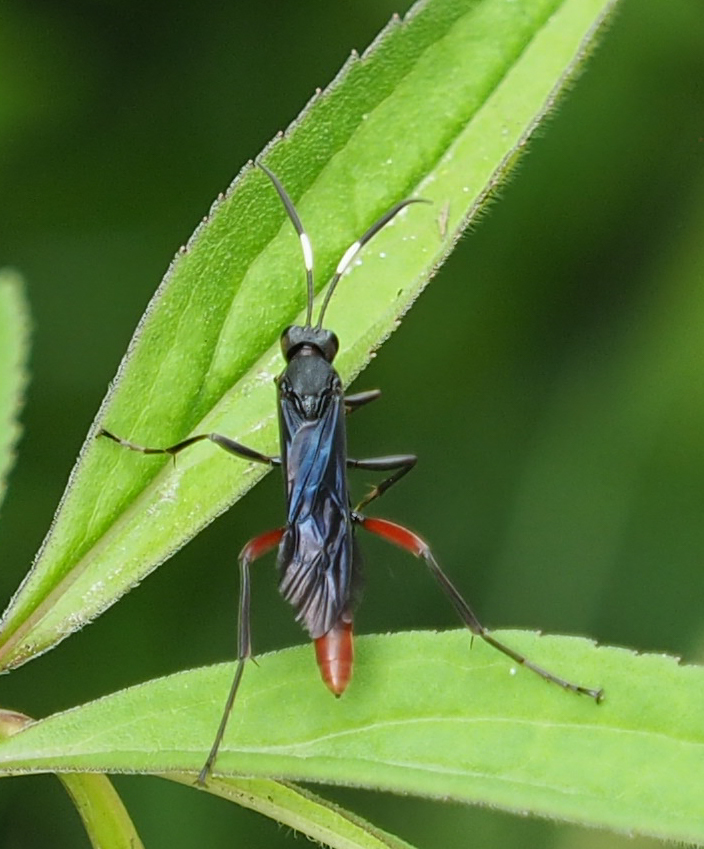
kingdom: Animalia
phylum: Arthropoda
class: Insecta
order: Hymenoptera
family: Ichneumonidae
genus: Limonethe
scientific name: Limonethe maurator
